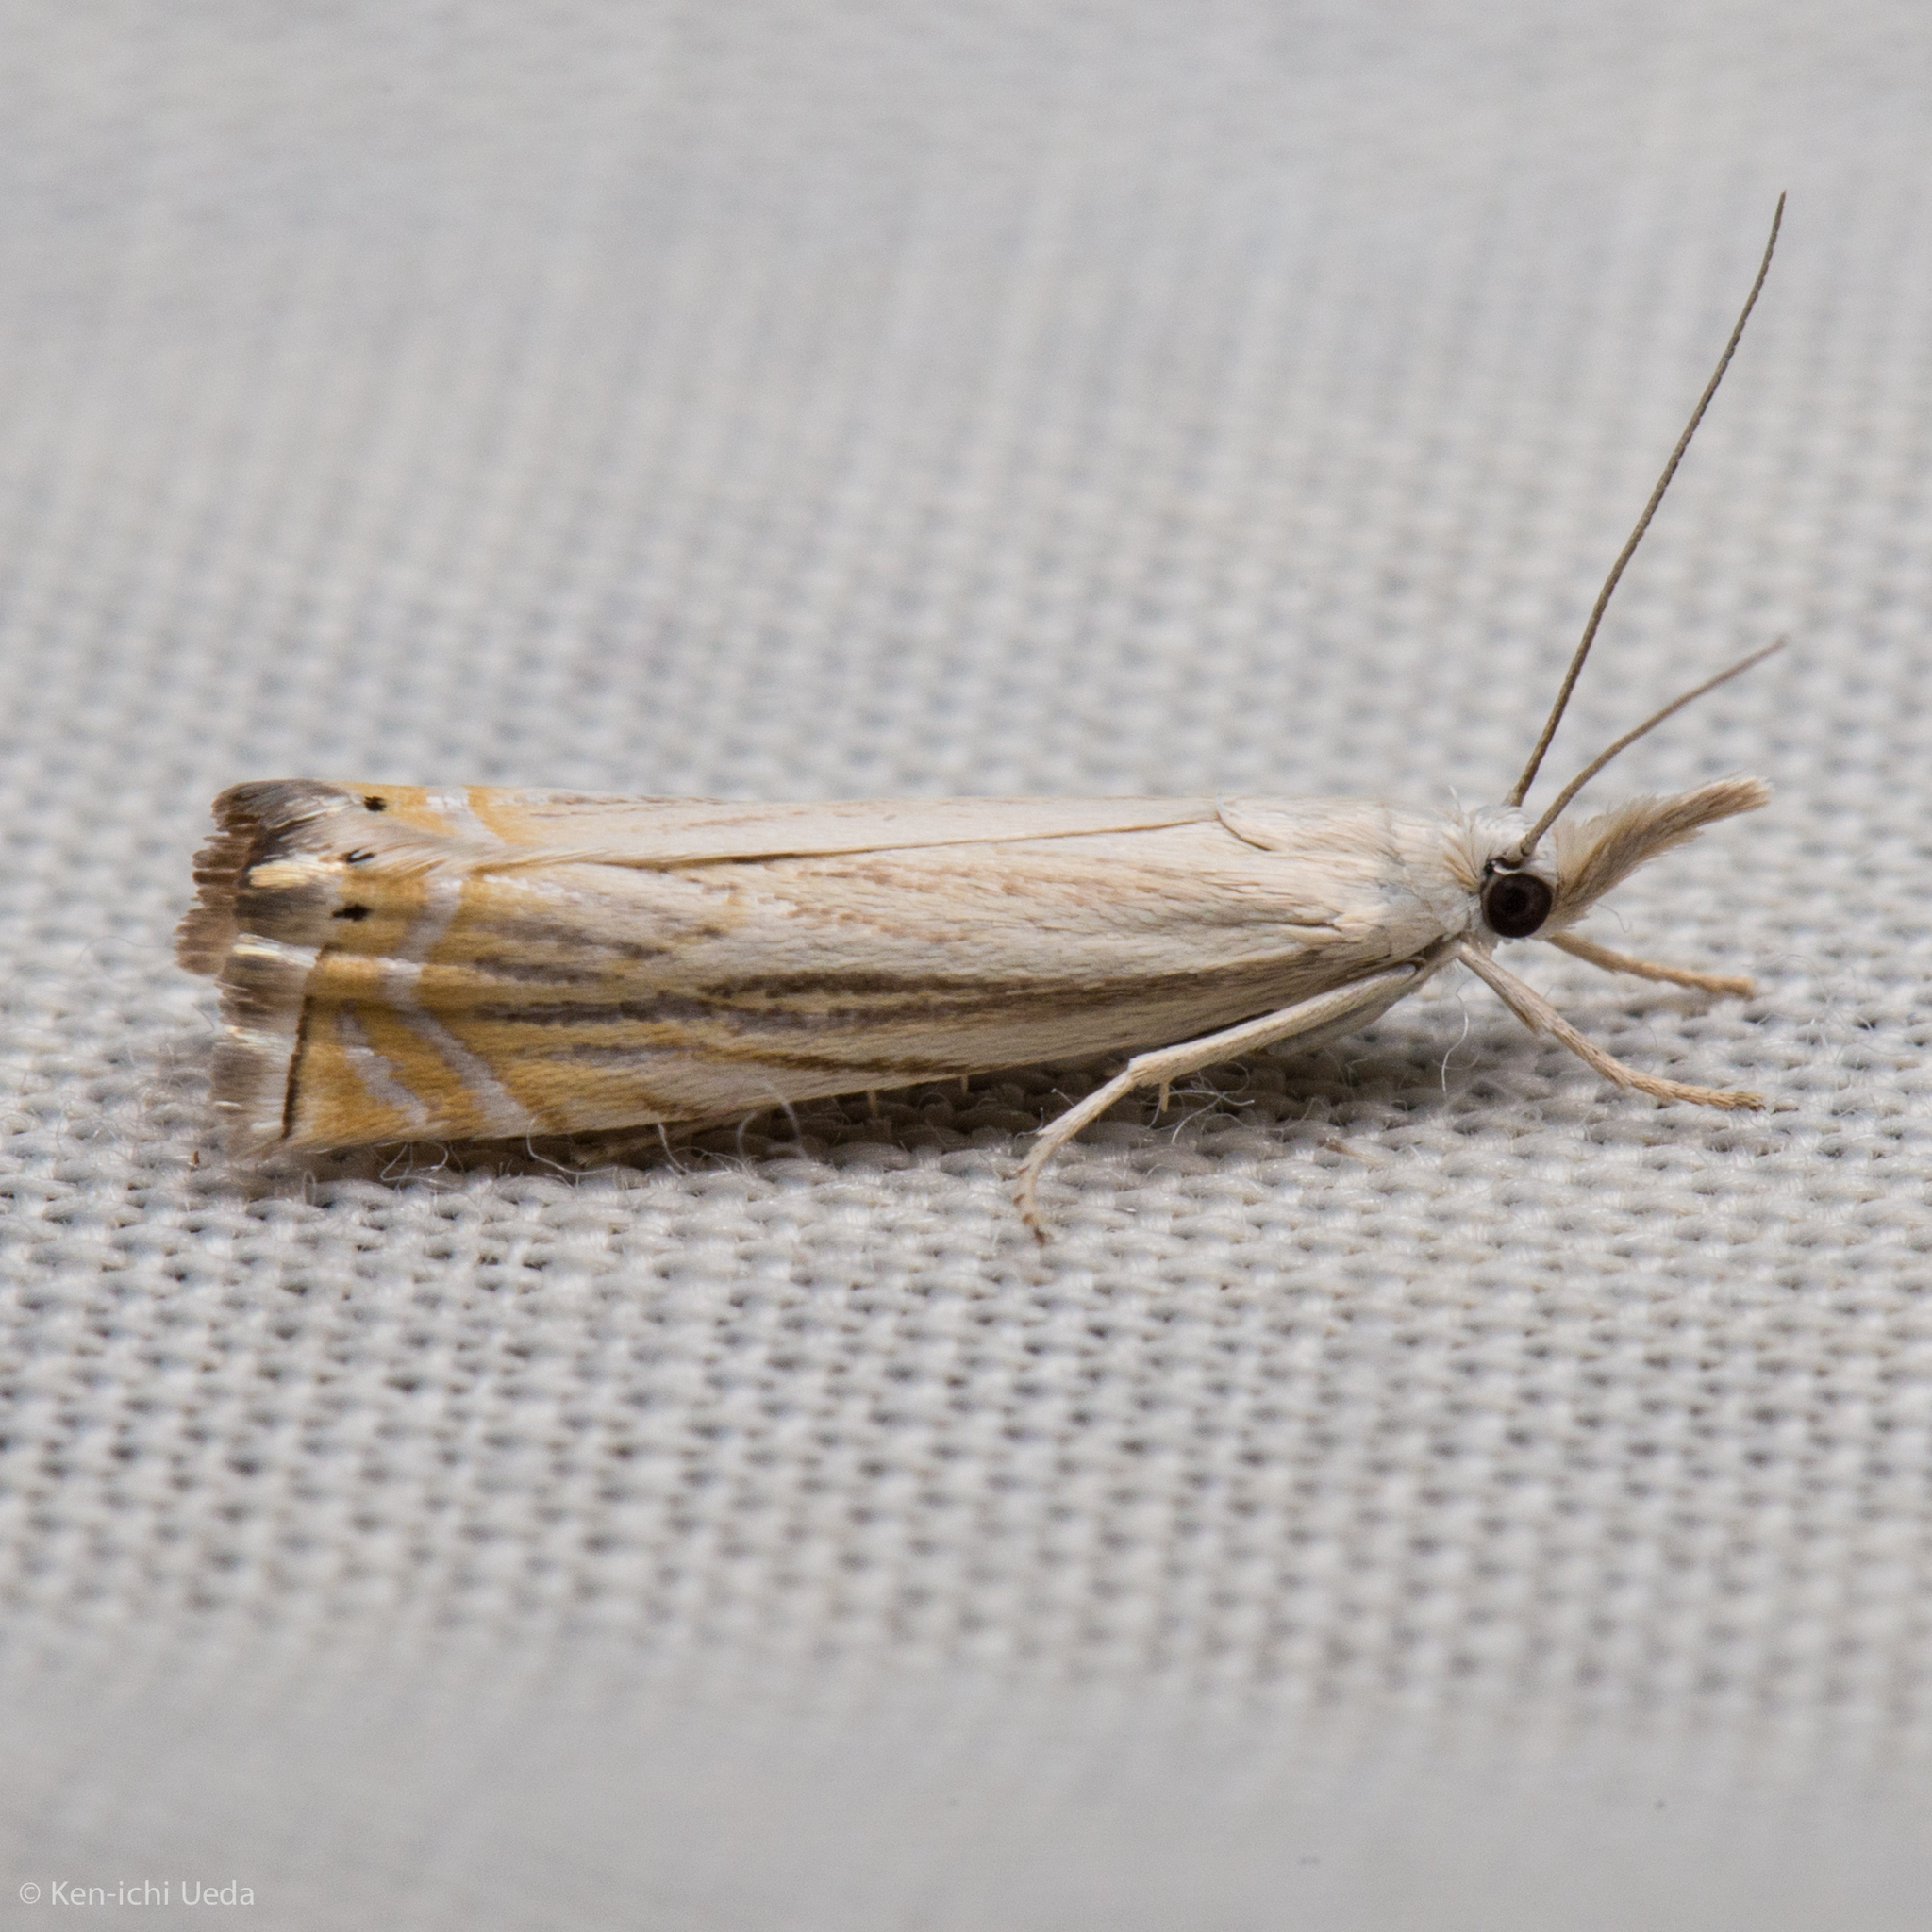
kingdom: Animalia
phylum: Arthropoda
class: Insecta
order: Lepidoptera
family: Crambidae
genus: Chrysoteuchia
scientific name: Chrysoteuchia topiarius
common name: Topiary grass-veneer
